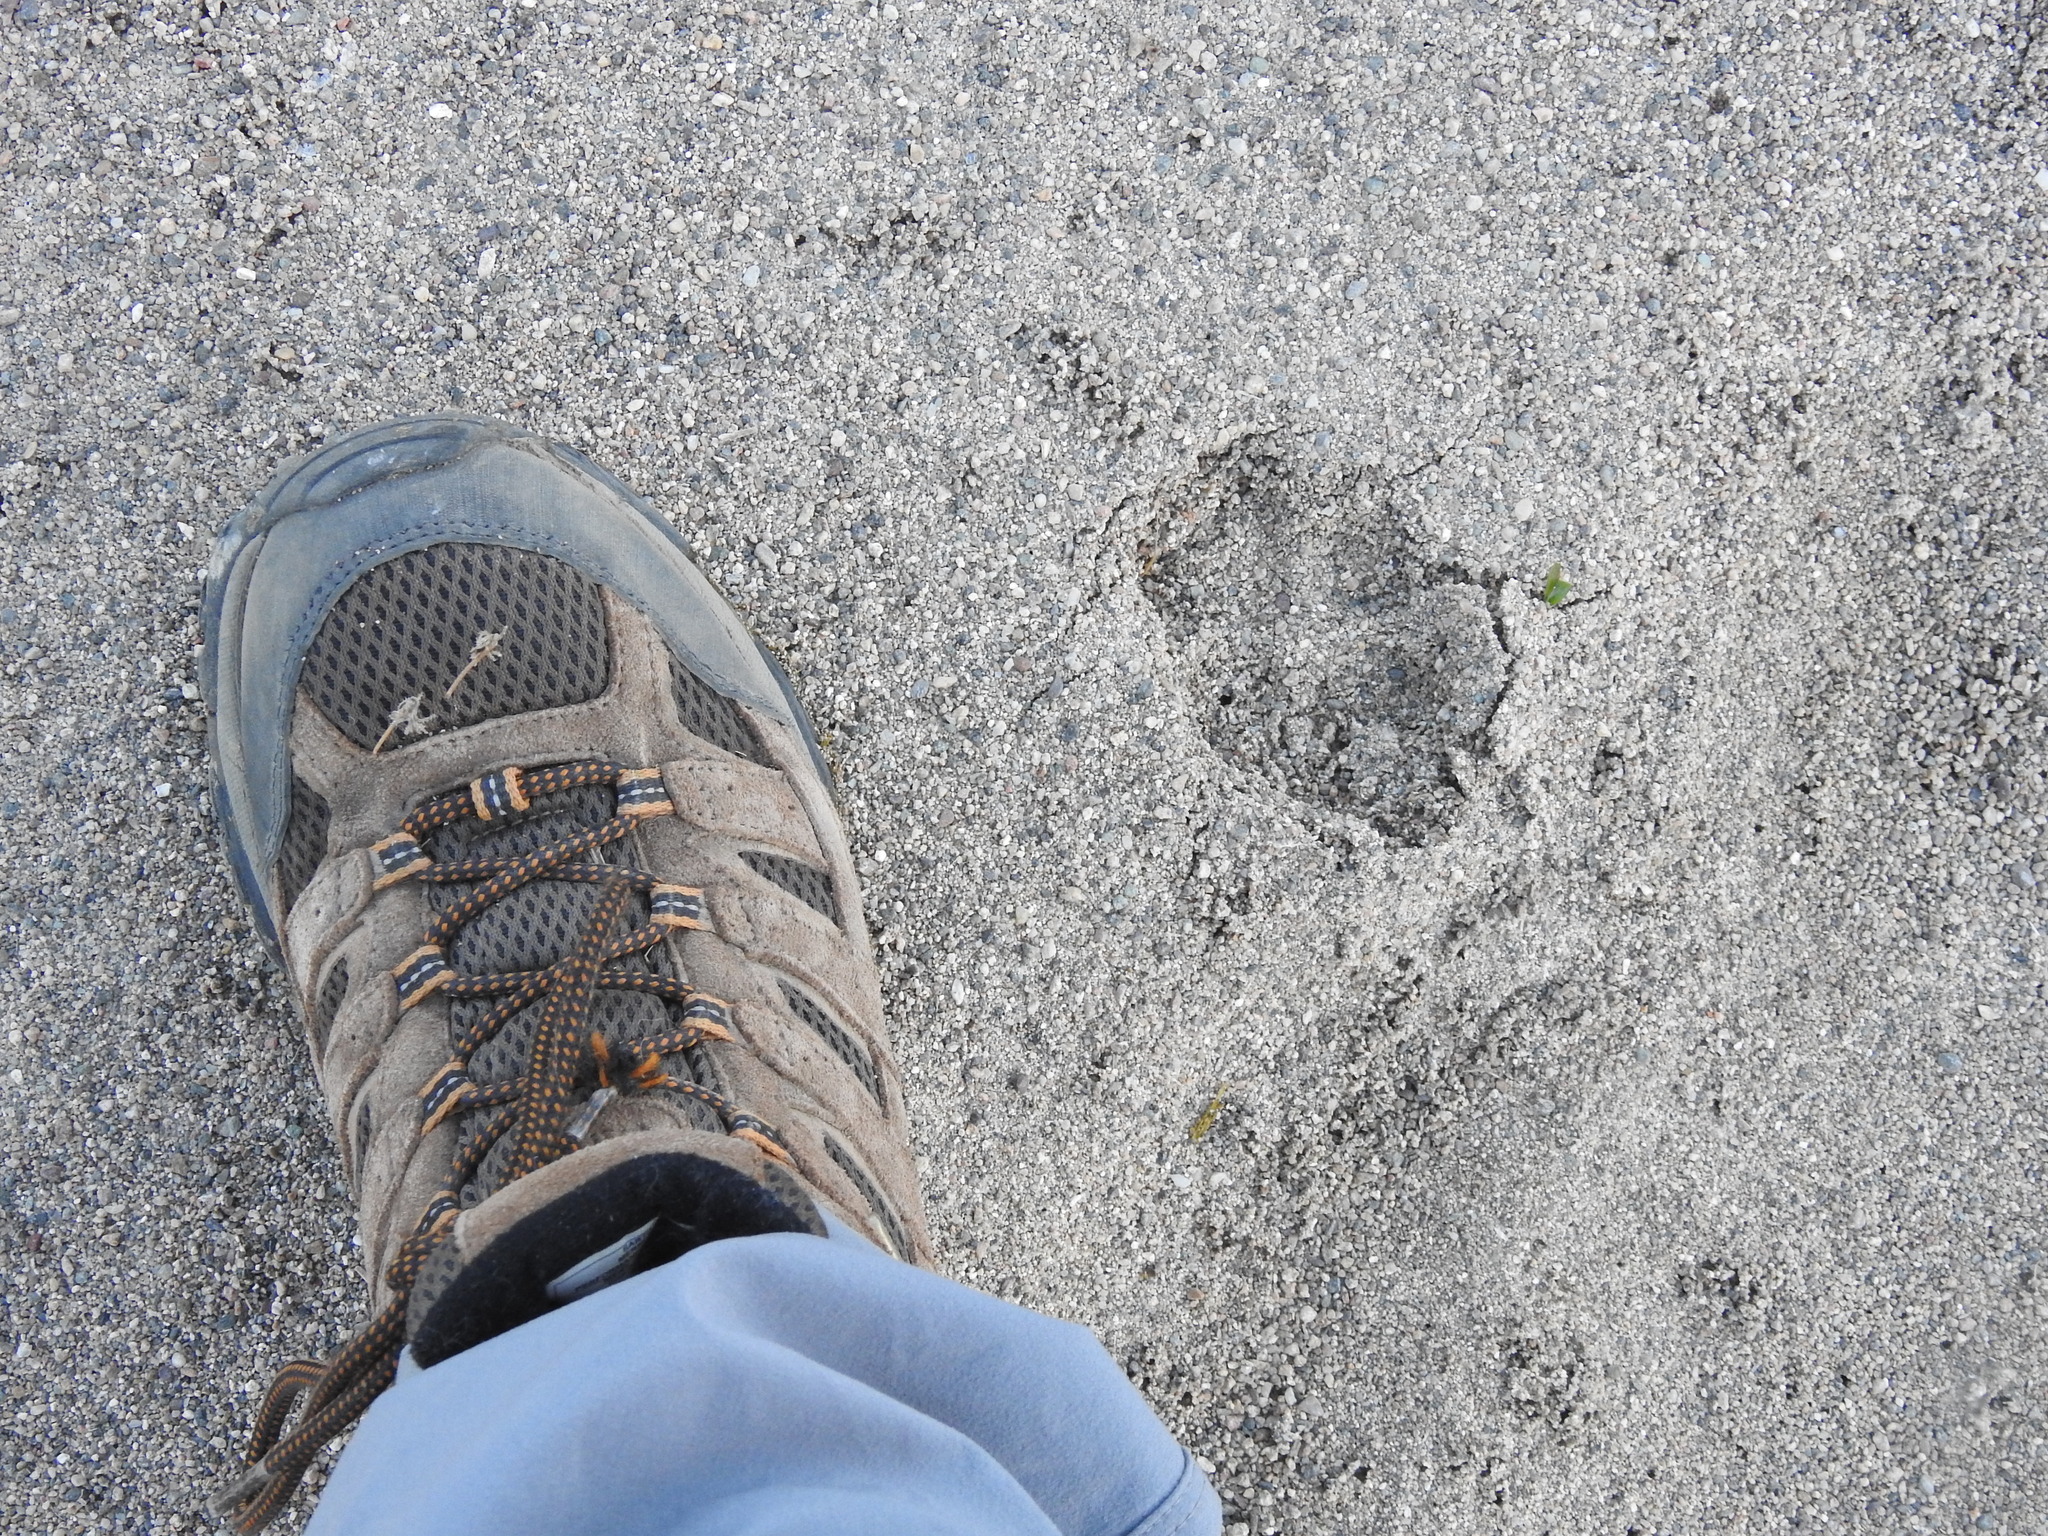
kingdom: Animalia
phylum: Chordata
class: Mammalia
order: Carnivora
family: Felidae
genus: Lynx
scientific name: Lynx rufus
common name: Bobcat
